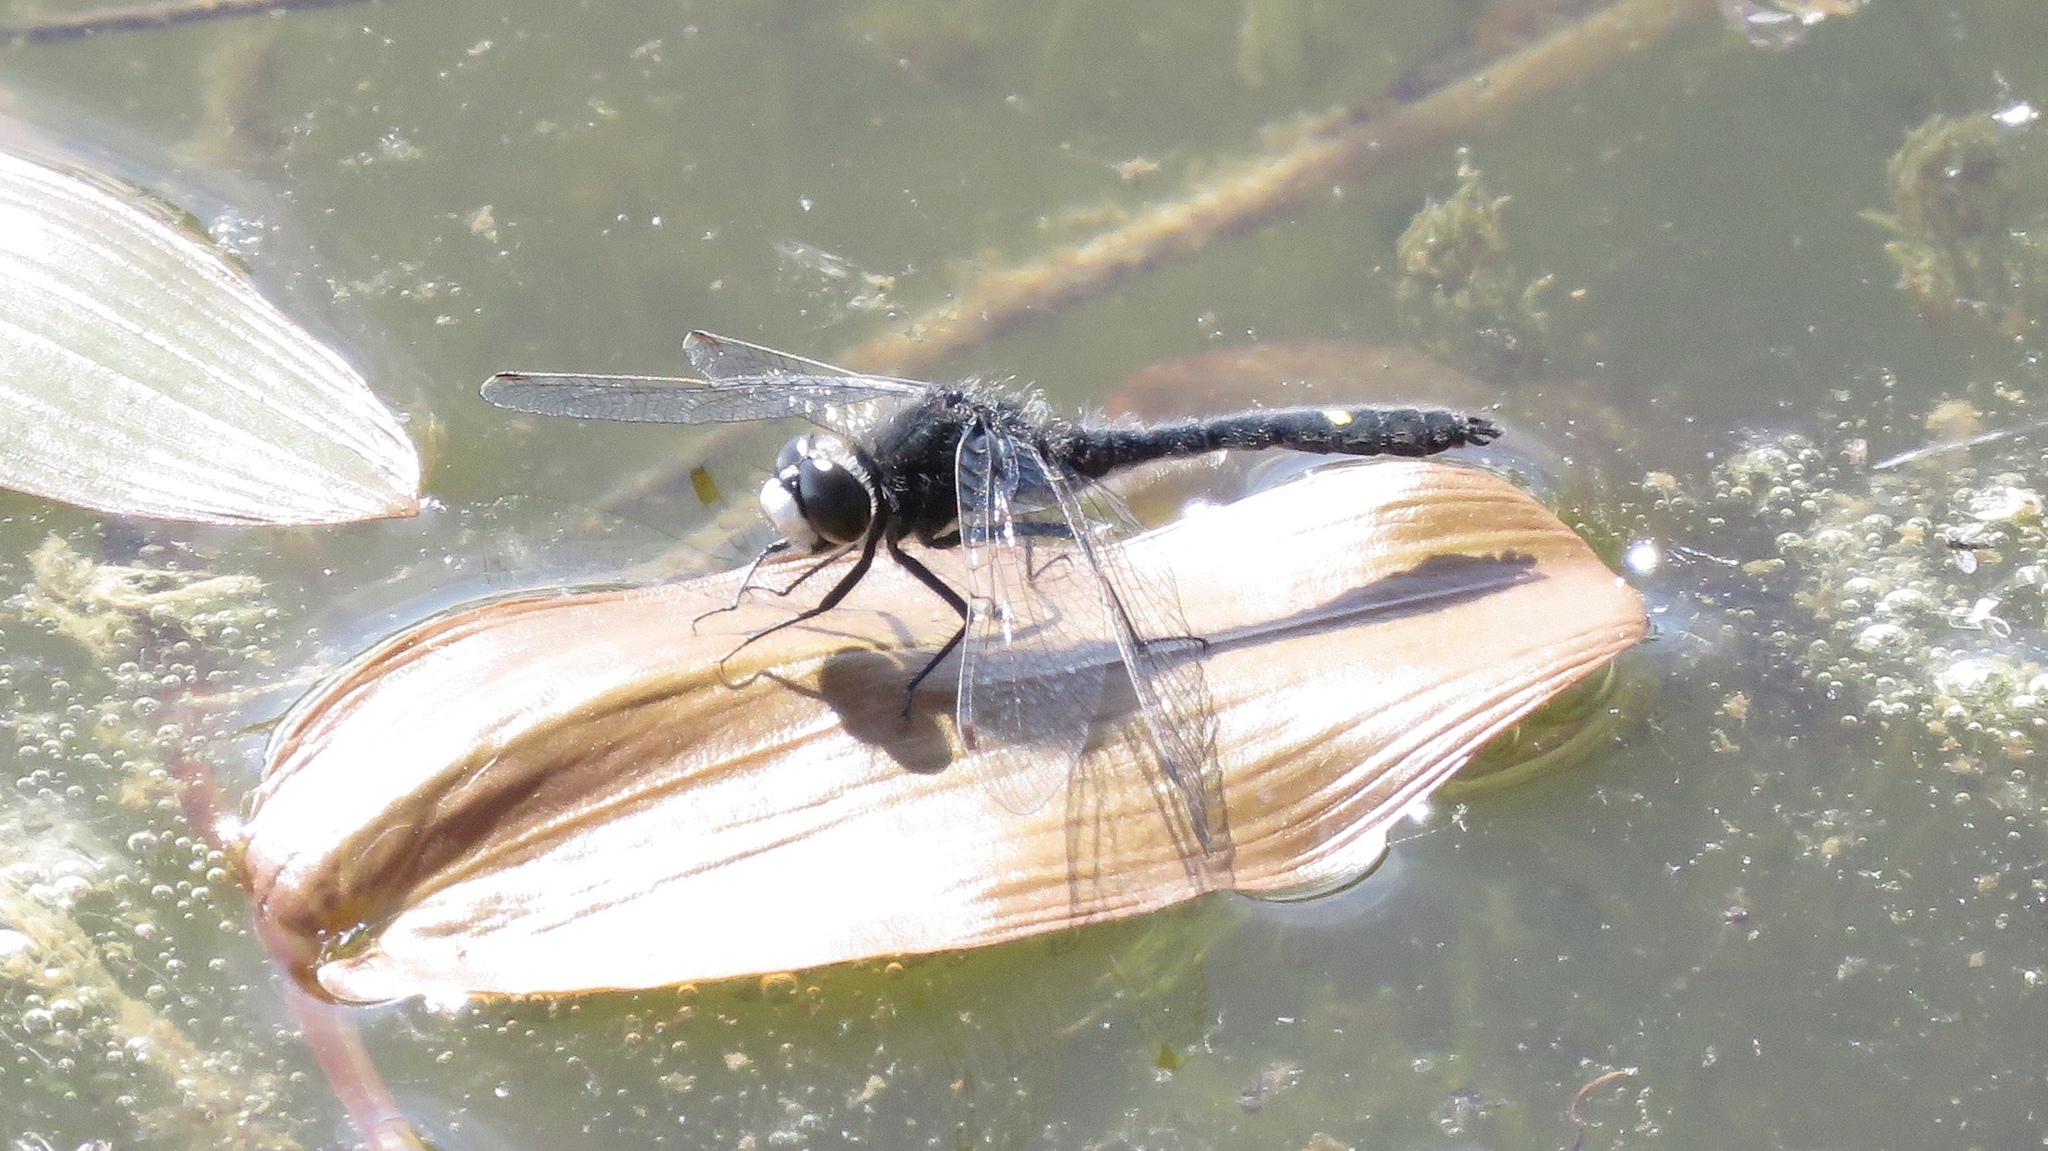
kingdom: Animalia
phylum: Arthropoda
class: Insecta
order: Odonata
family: Libellulidae
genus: Leucorrhinia
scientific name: Leucorrhinia intacta
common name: Dot-tailed whiteface
